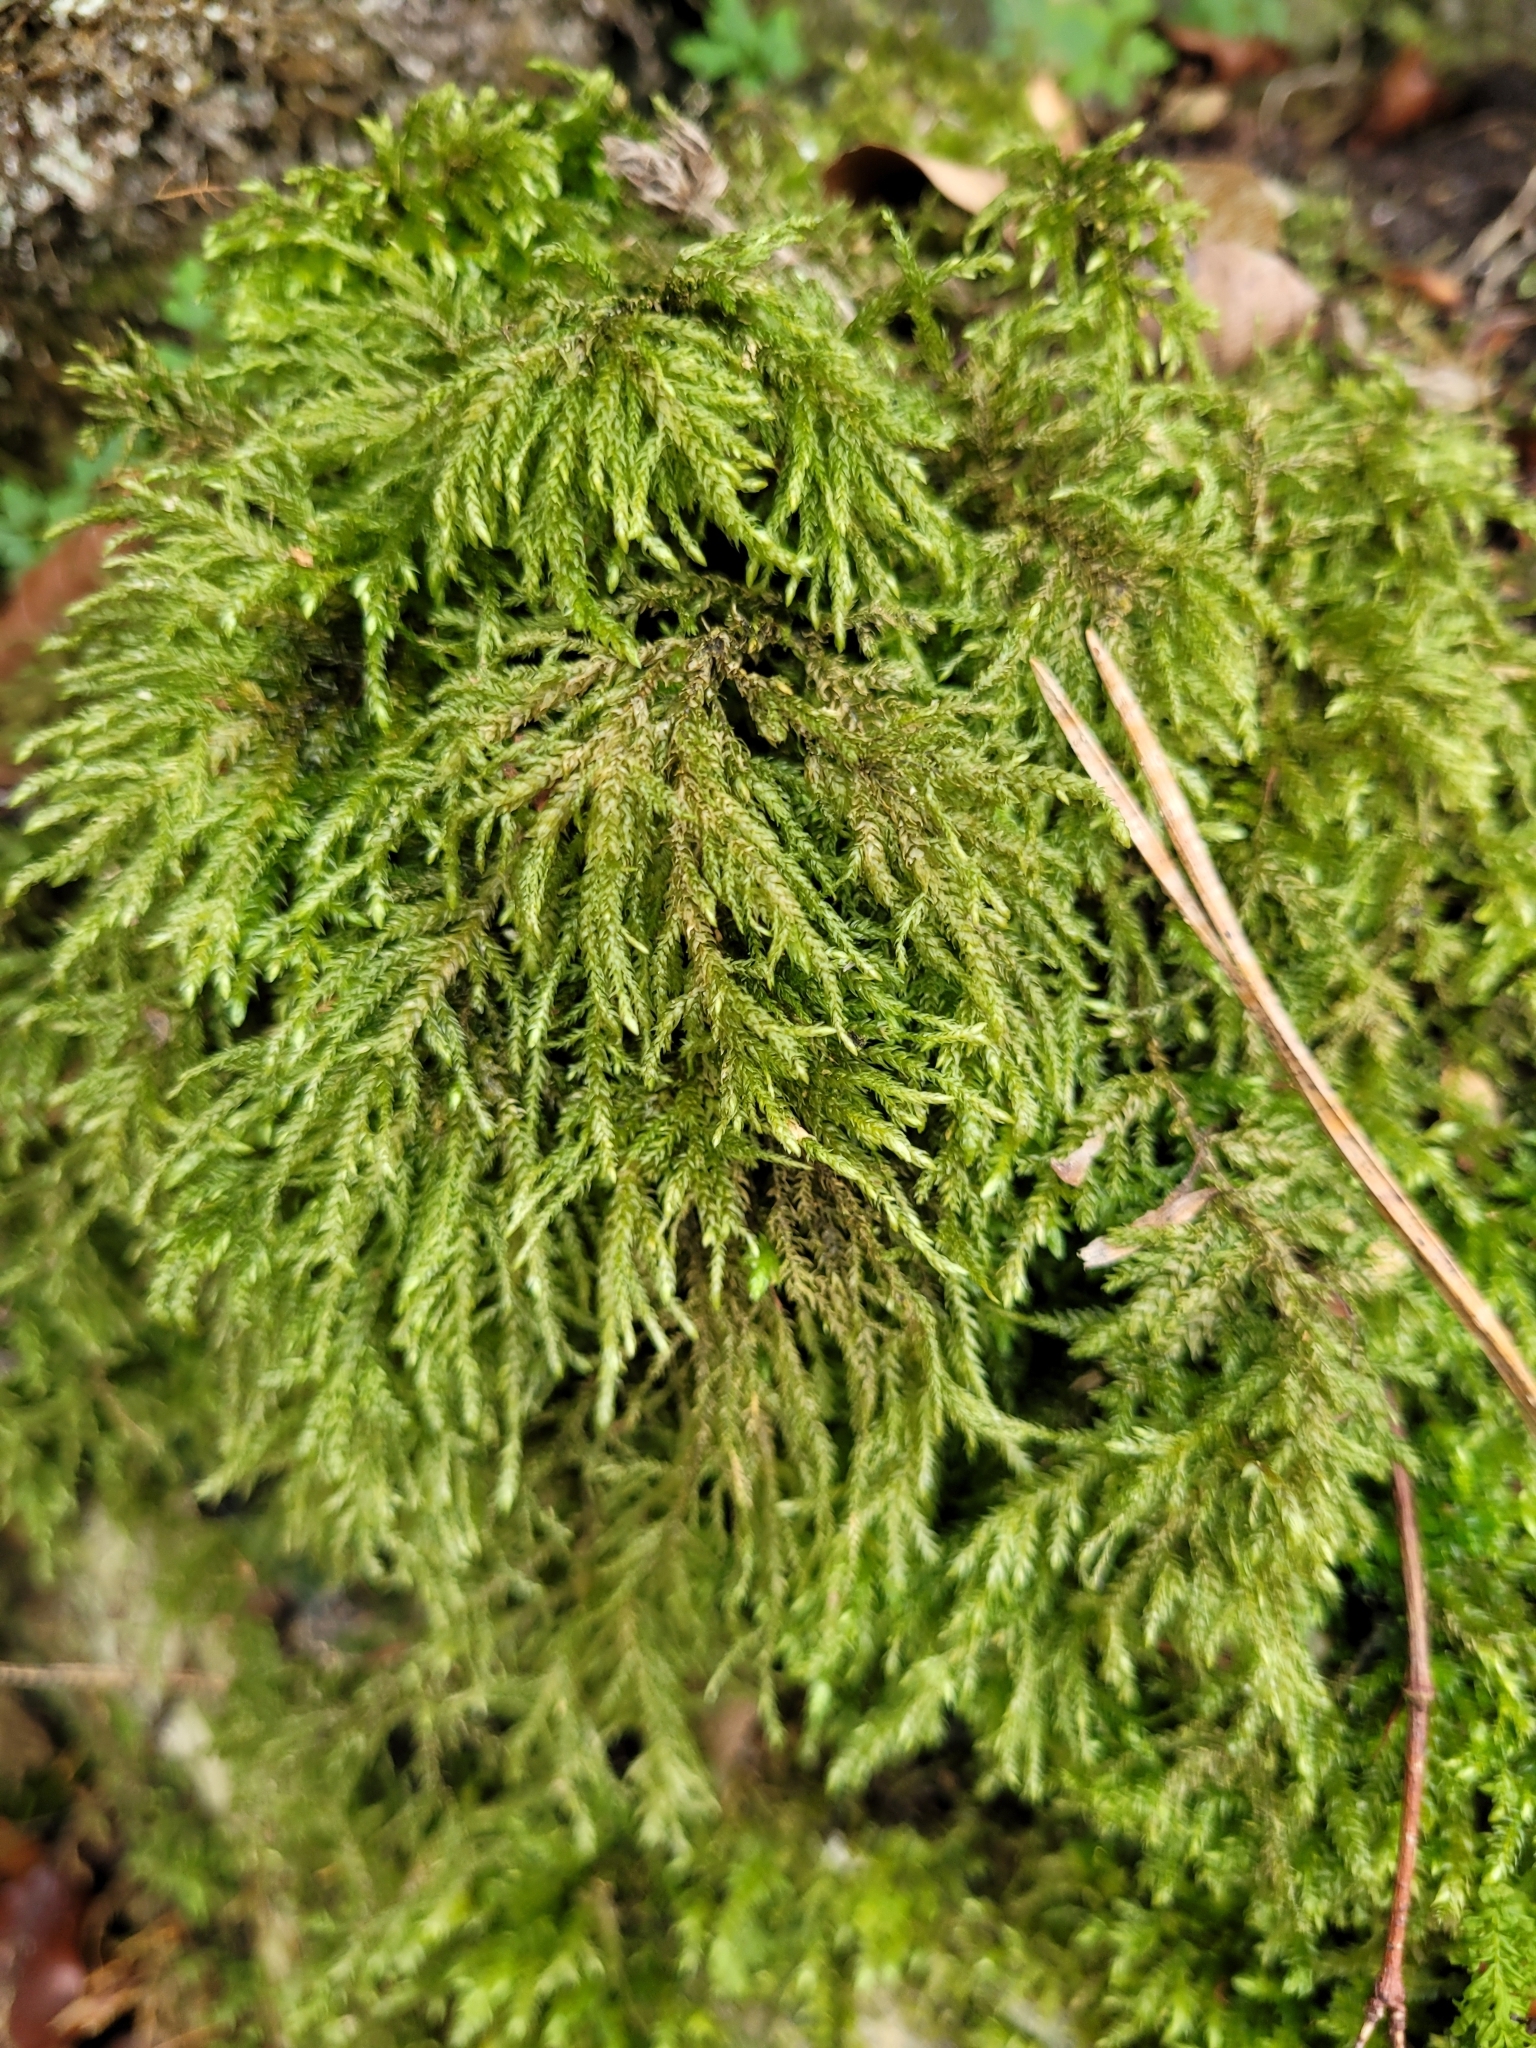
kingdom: Plantae
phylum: Bryophyta
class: Bryopsida
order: Hypnales
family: Neckeraceae
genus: Thamnobryum
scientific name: Thamnobryum alopecurum
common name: Fox-tail feather-moss
